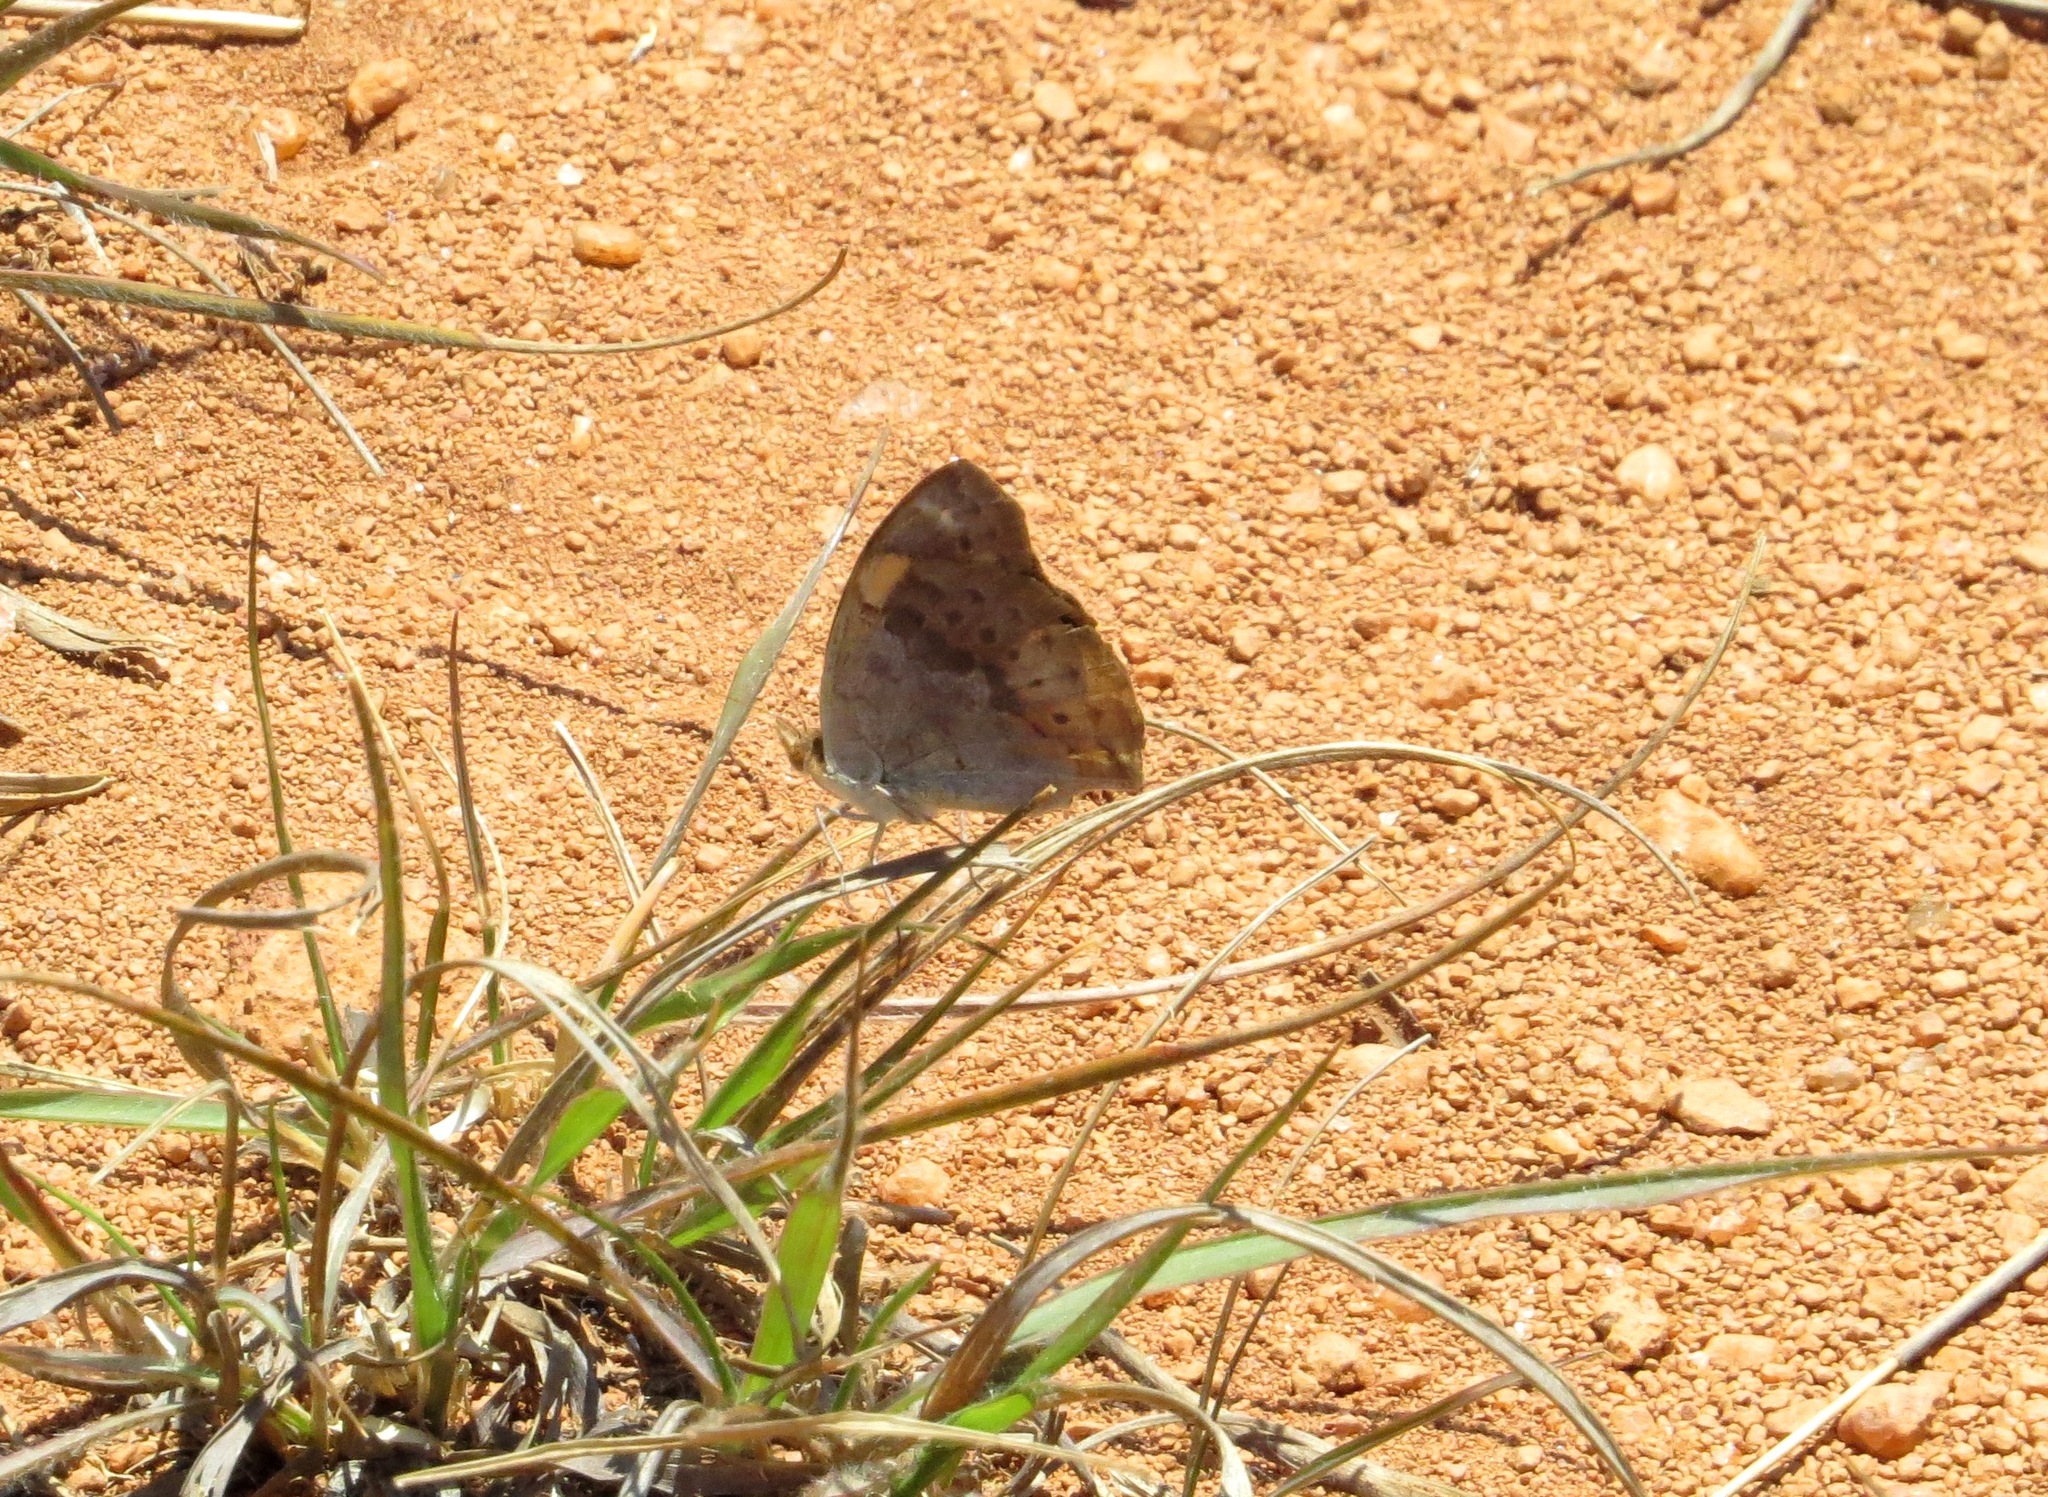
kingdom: Animalia
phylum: Arthropoda
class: Insecta
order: Lepidoptera
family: Nymphalidae
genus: Junonia
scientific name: Junonia hierta
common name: Yellow pansy
